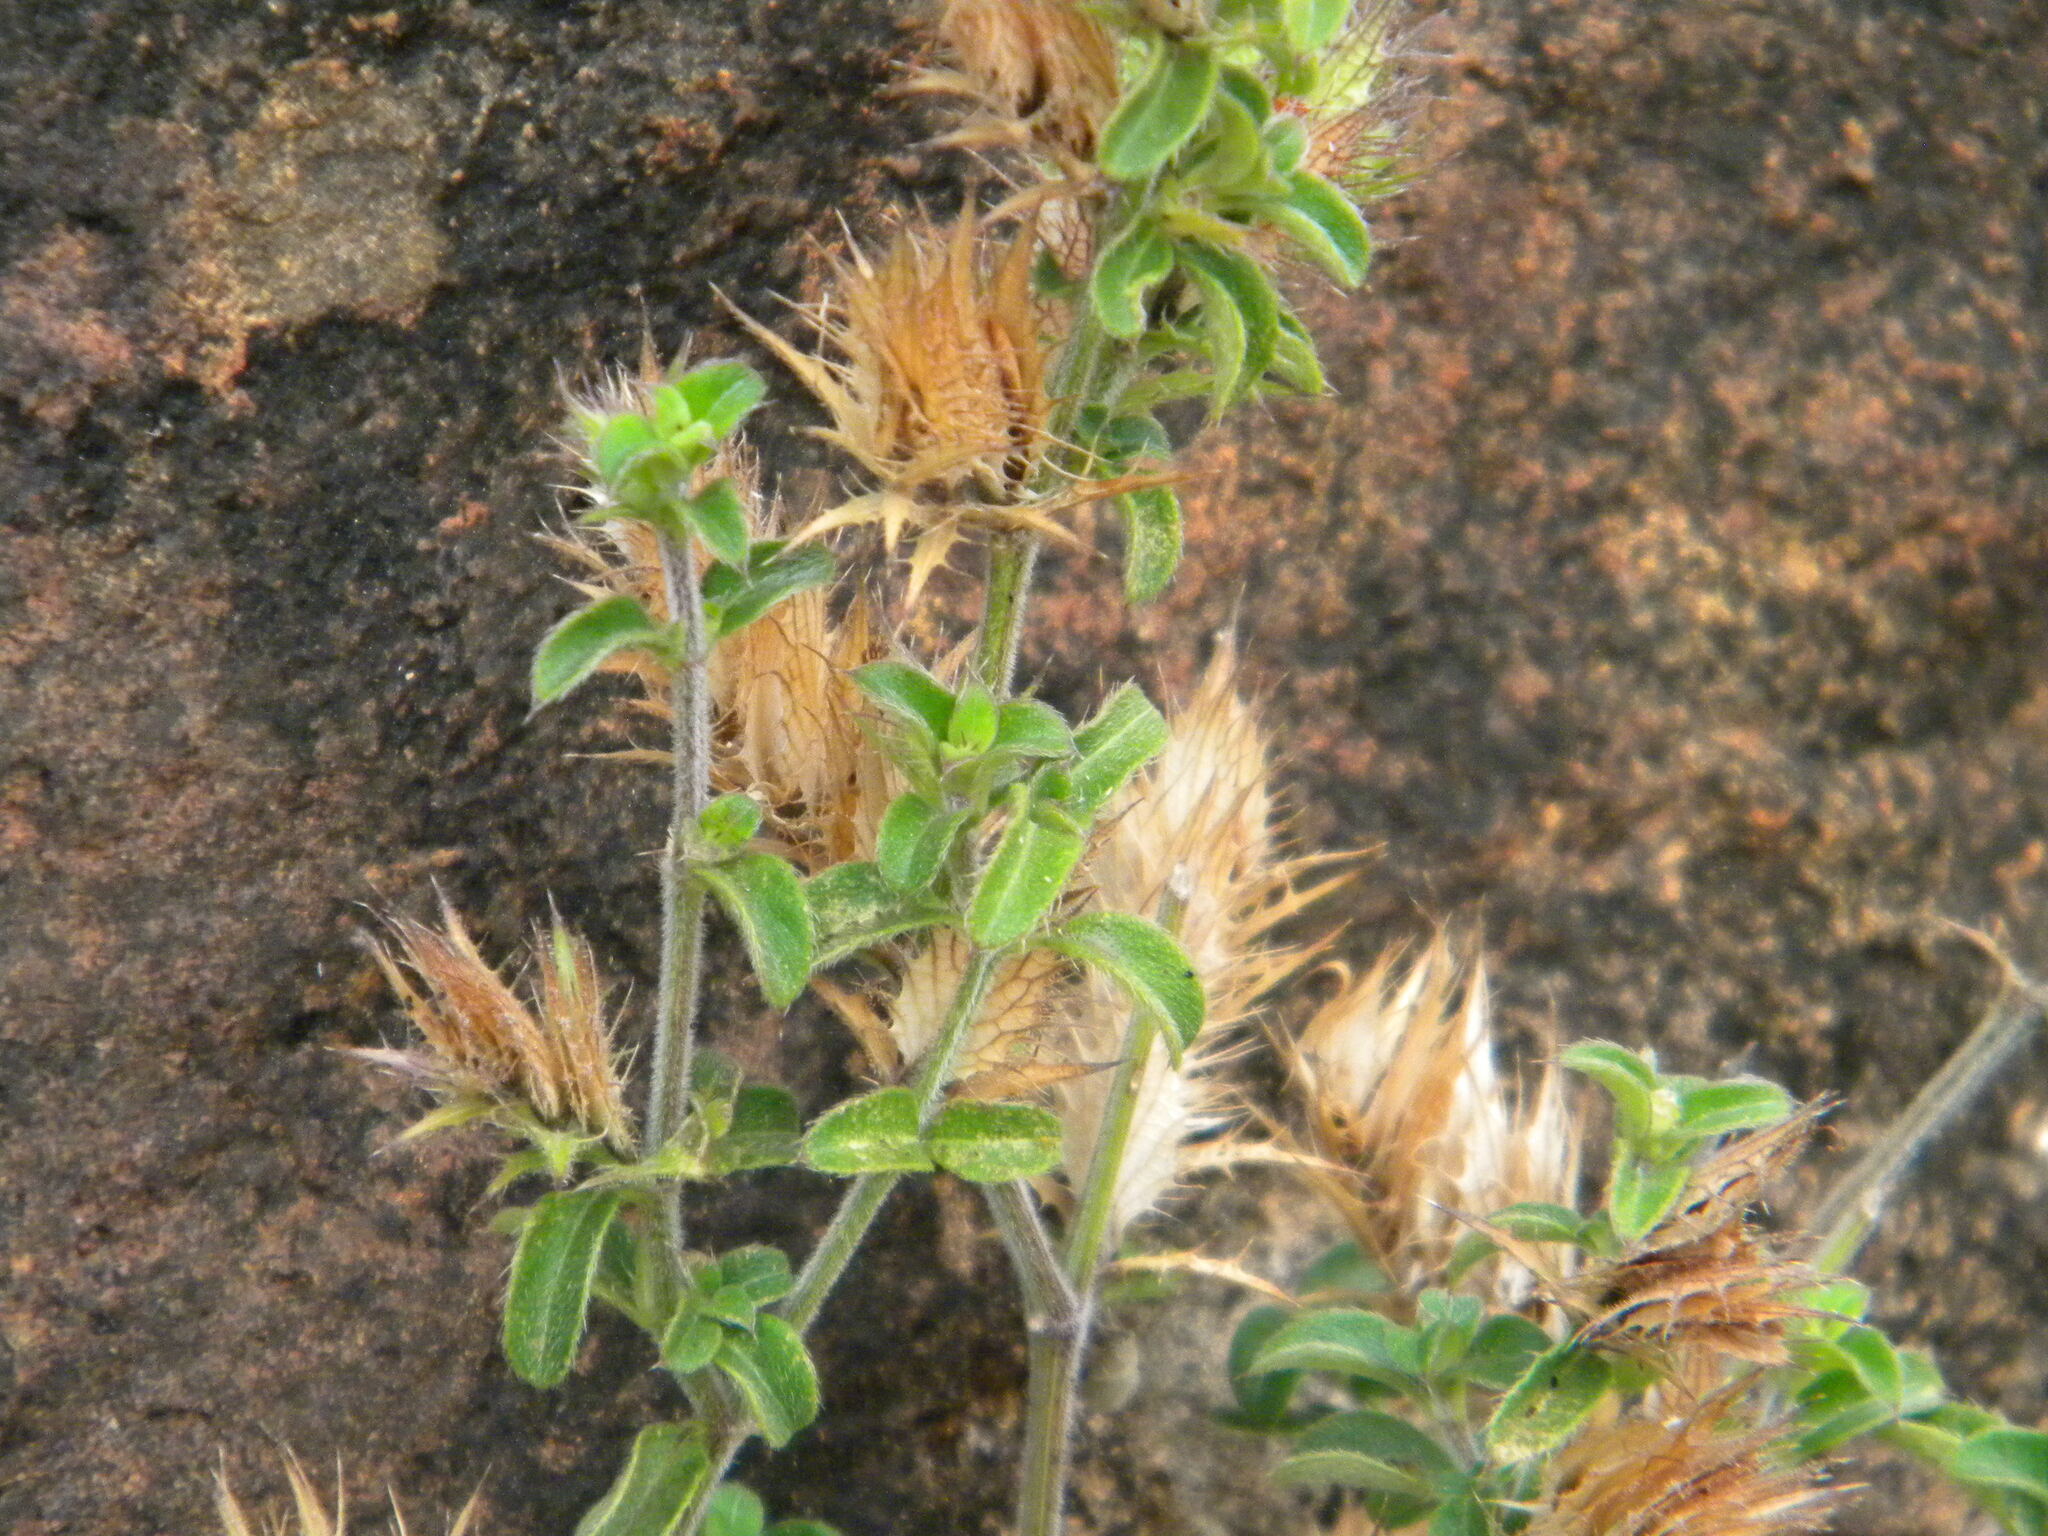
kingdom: Plantae
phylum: Tracheophyta
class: Magnoliopsida
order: Lamiales
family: Acanthaceae
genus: Barleria
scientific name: Barleria saxatilis
